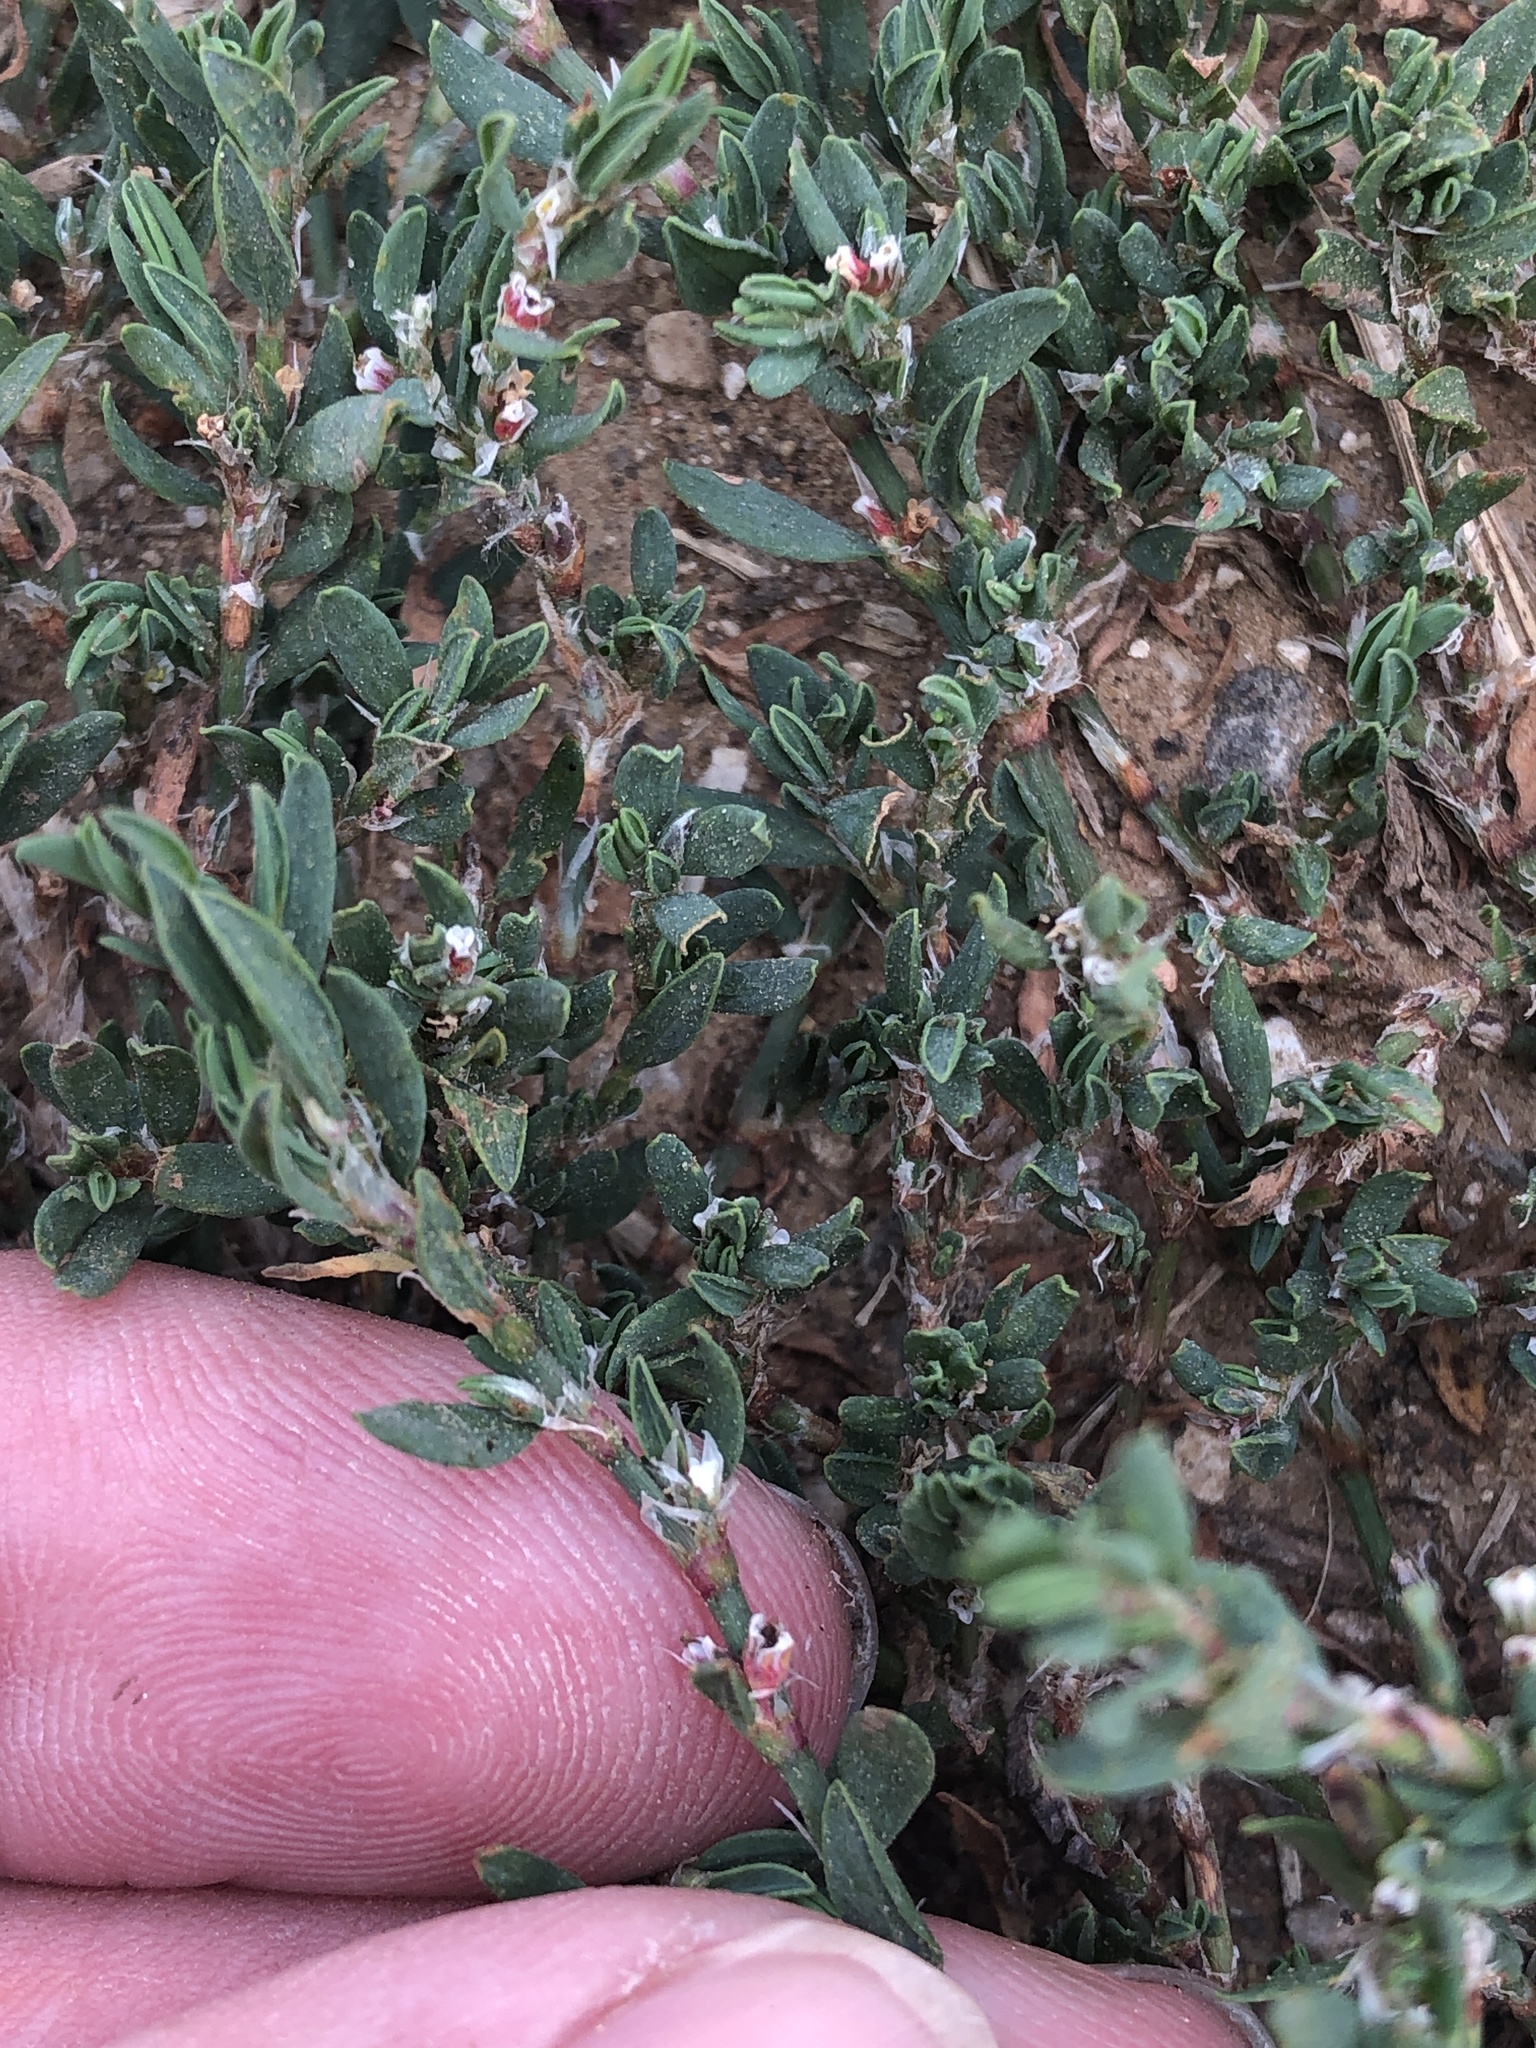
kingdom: Plantae
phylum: Tracheophyta
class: Magnoliopsida
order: Caryophyllales
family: Polygonaceae
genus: Polygonum
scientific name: Polygonum aviculare
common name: Prostrate knotweed
